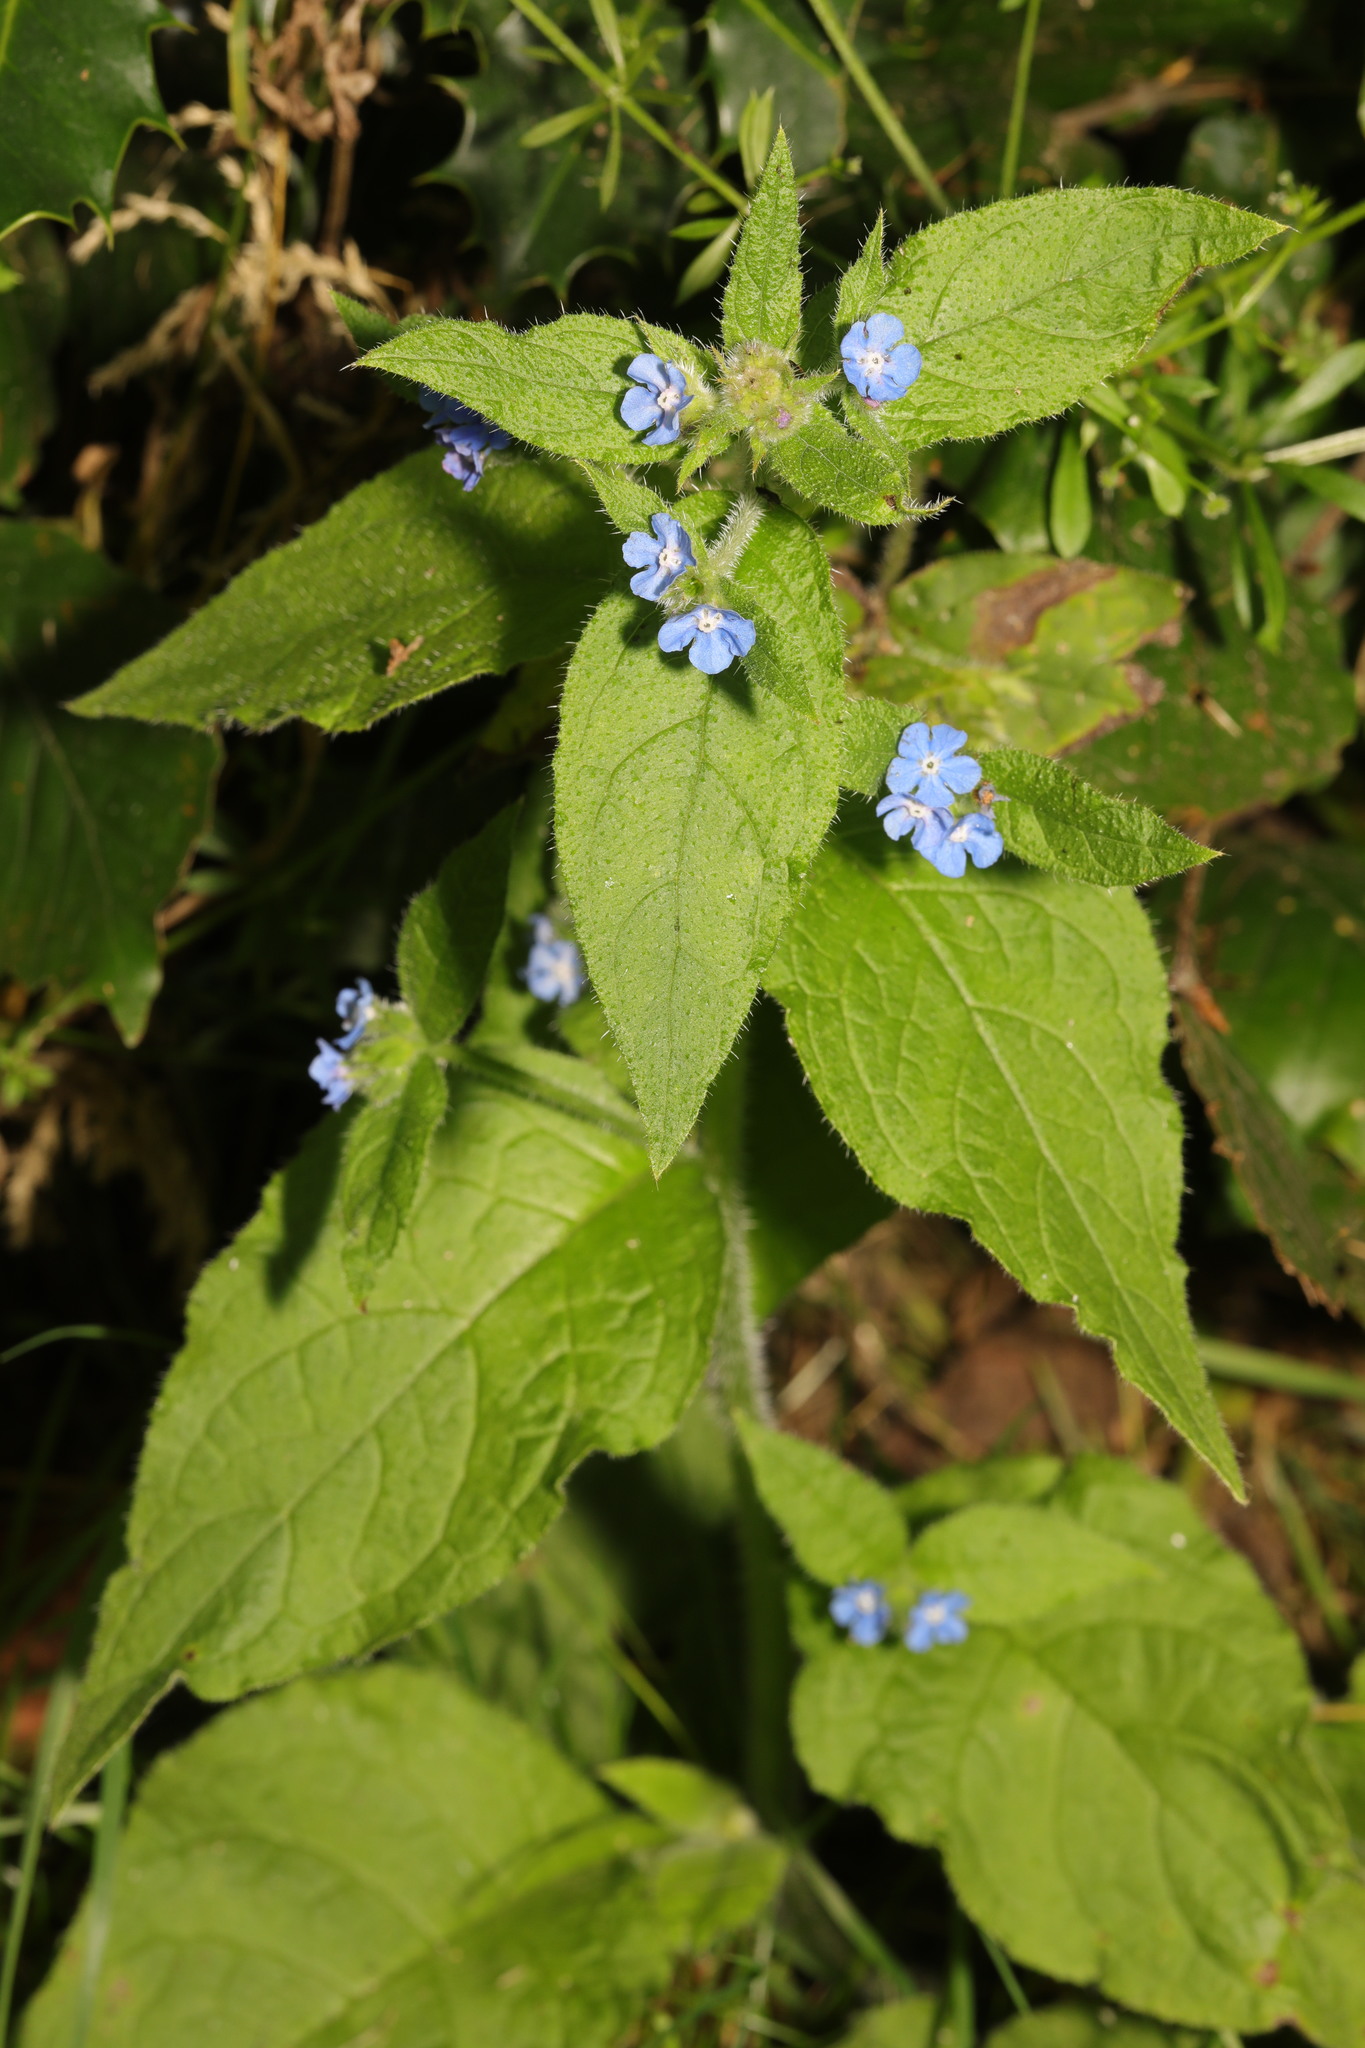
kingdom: Plantae
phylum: Tracheophyta
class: Magnoliopsida
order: Boraginales
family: Boraginaceae
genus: Pentaglottis
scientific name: Pentaglottis sempervirens
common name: Green alkanet
